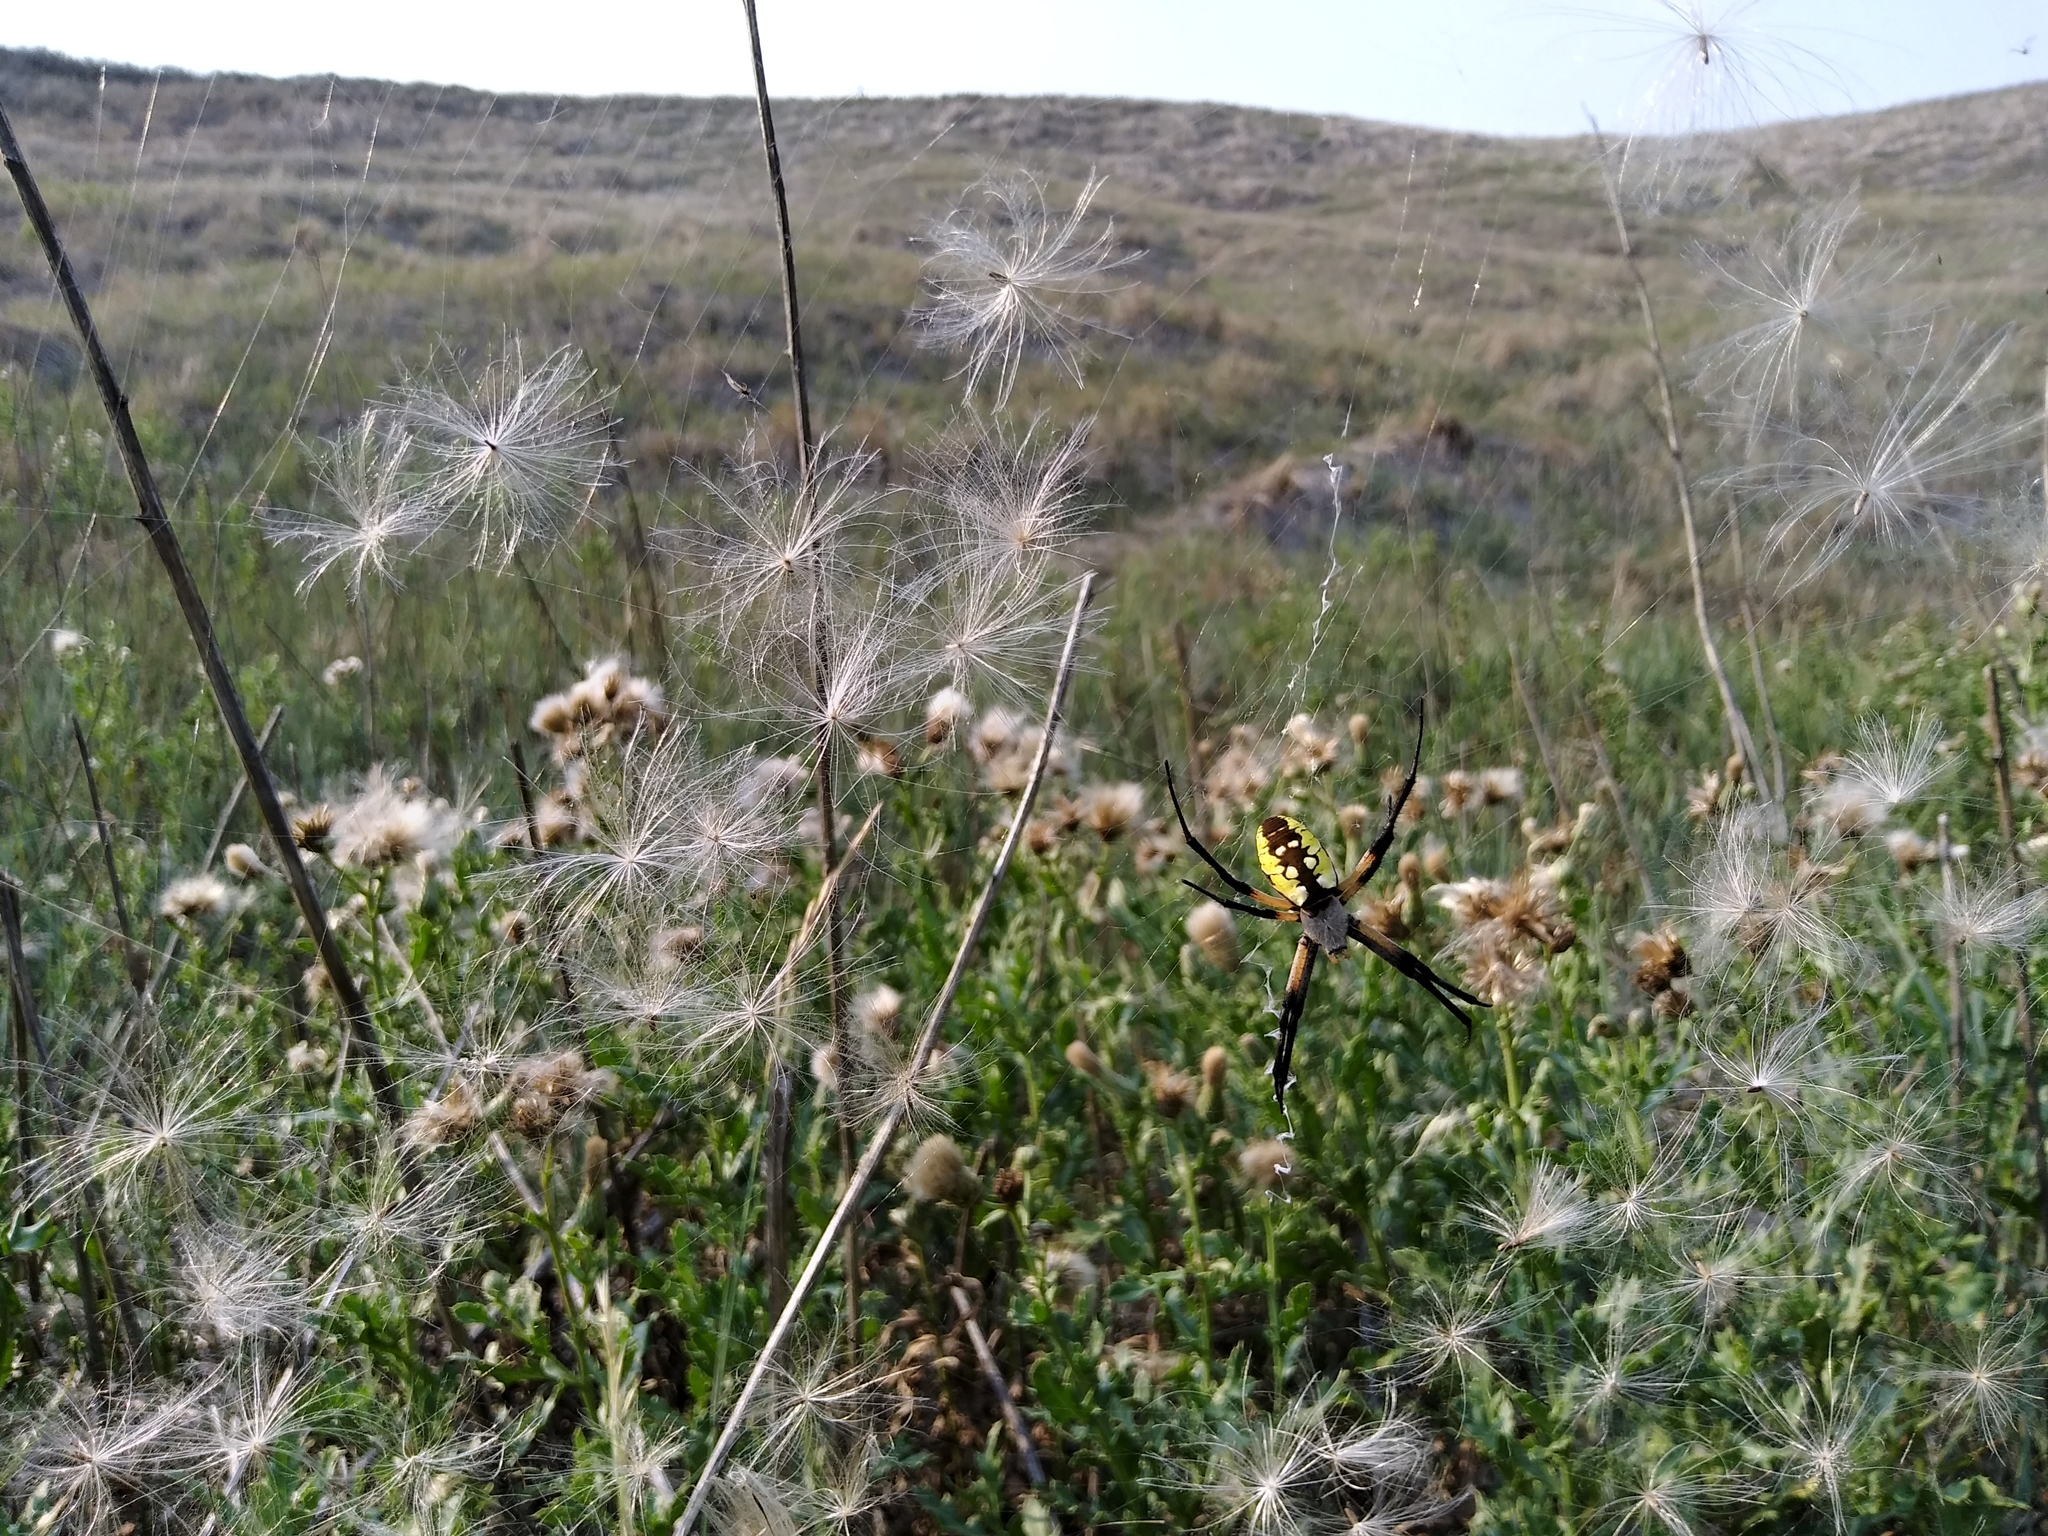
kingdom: Animalia
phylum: Arthropoda
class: Arachnida
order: Araneae
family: Araneidae
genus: Argiope
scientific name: Argiope aurantia
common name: Orb weavers
